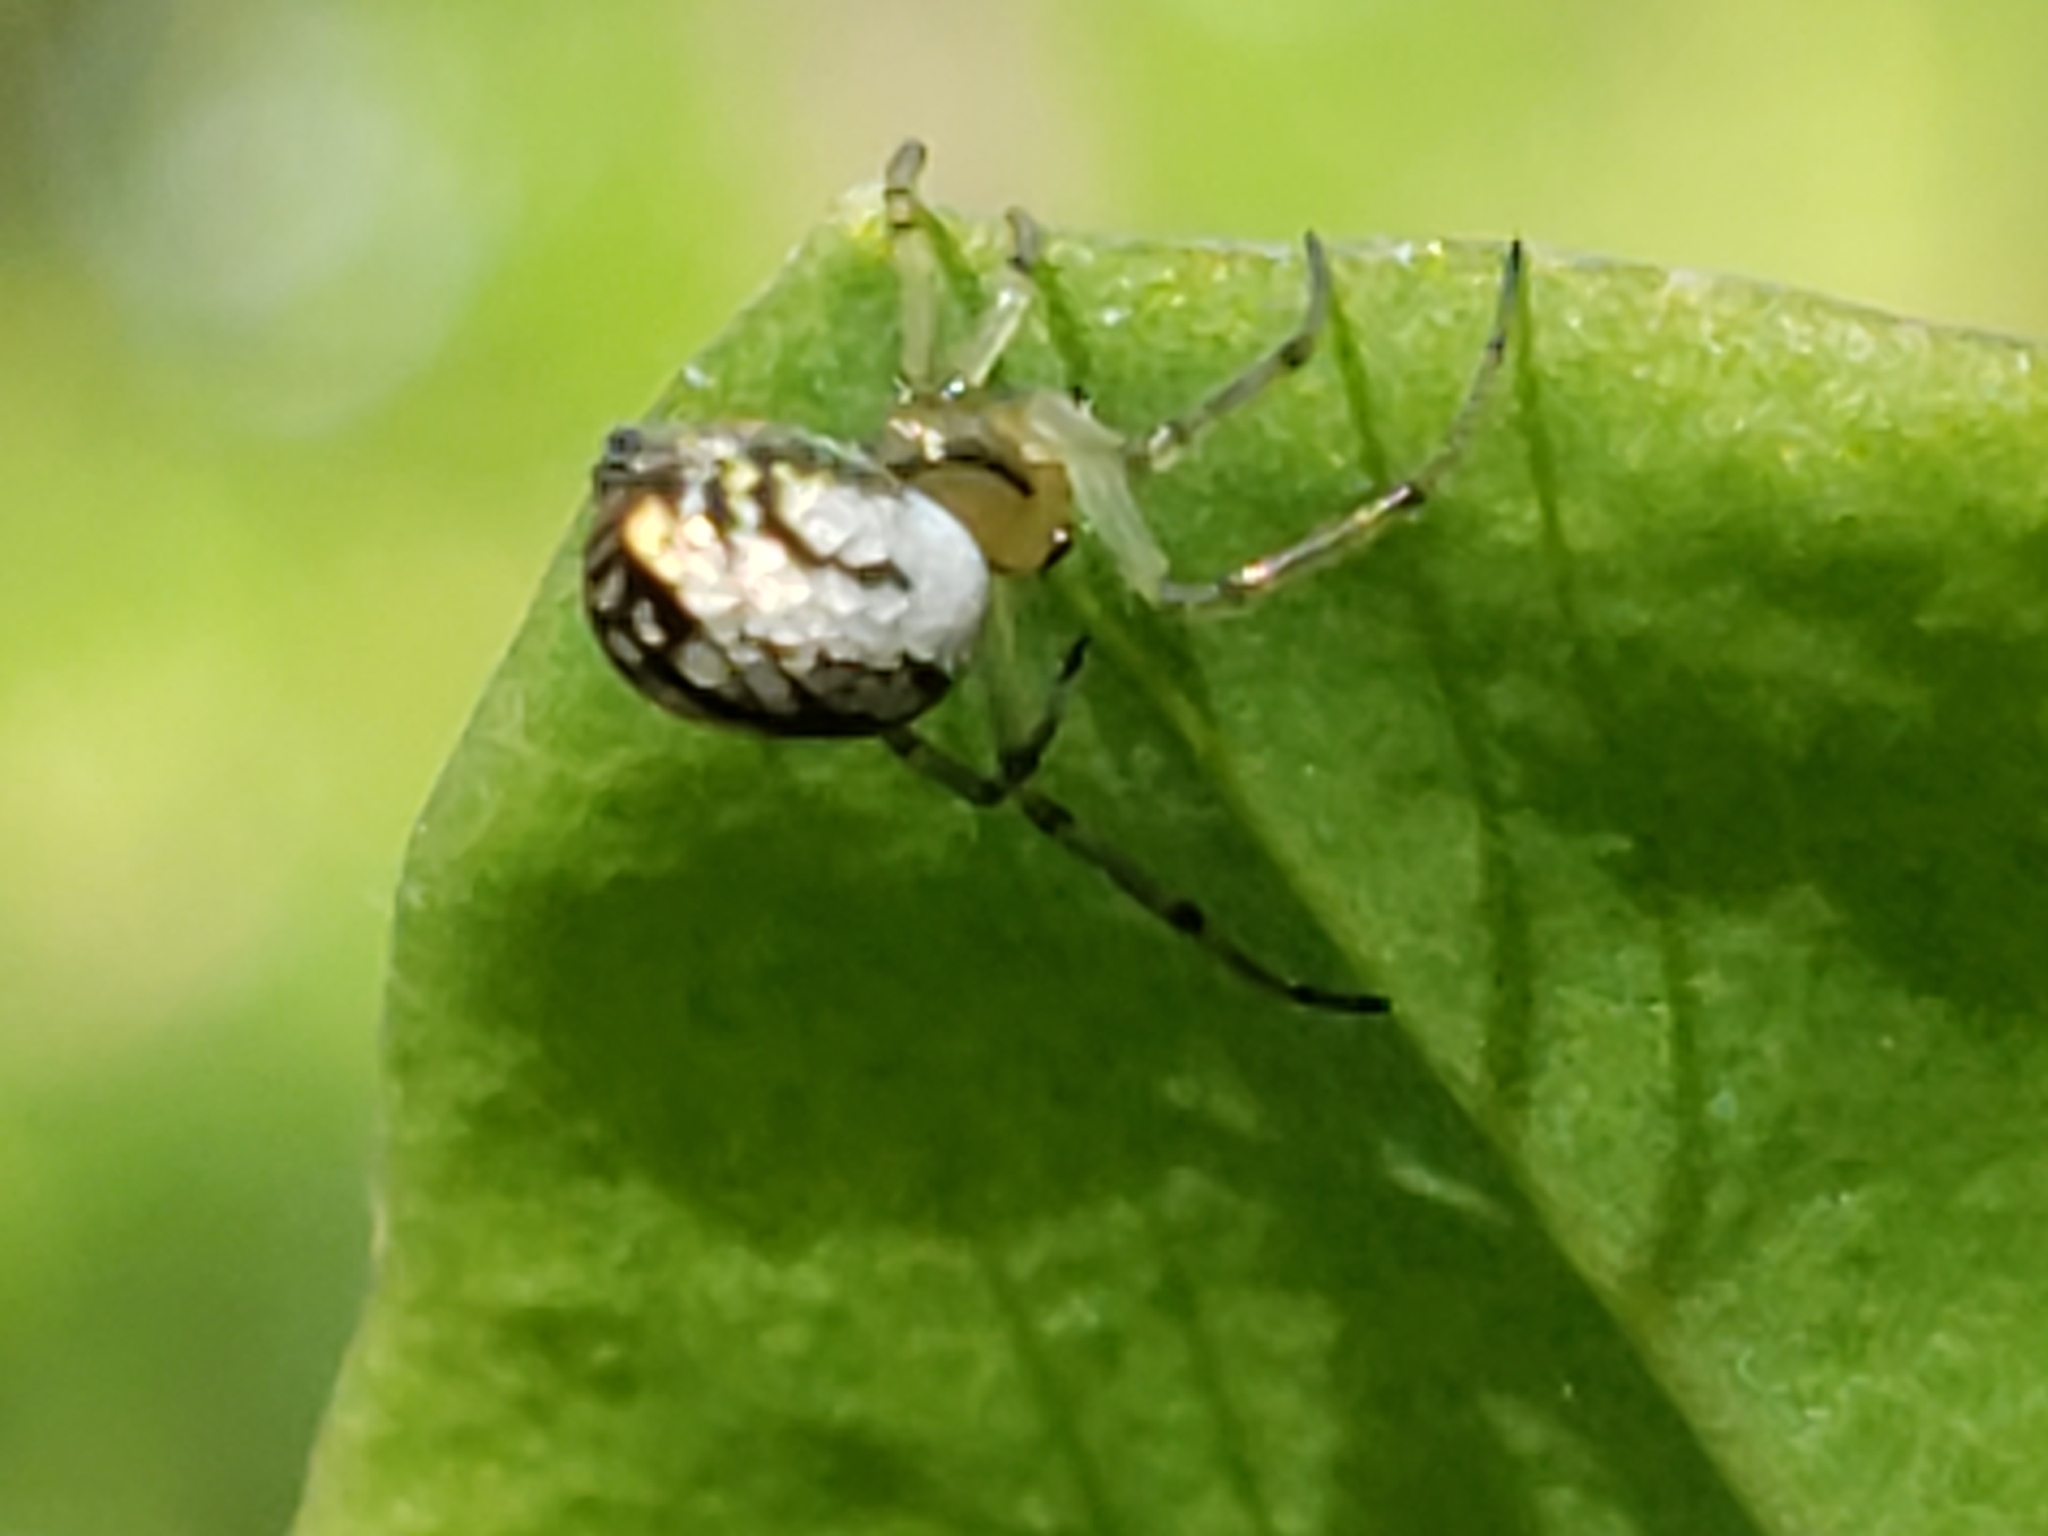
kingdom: Animalia
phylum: Arthropoda
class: Arachnida
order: Araneae
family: Tetragnathidae
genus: Leucauge
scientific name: Leucauge venusta
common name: Longjawed orb weavers
